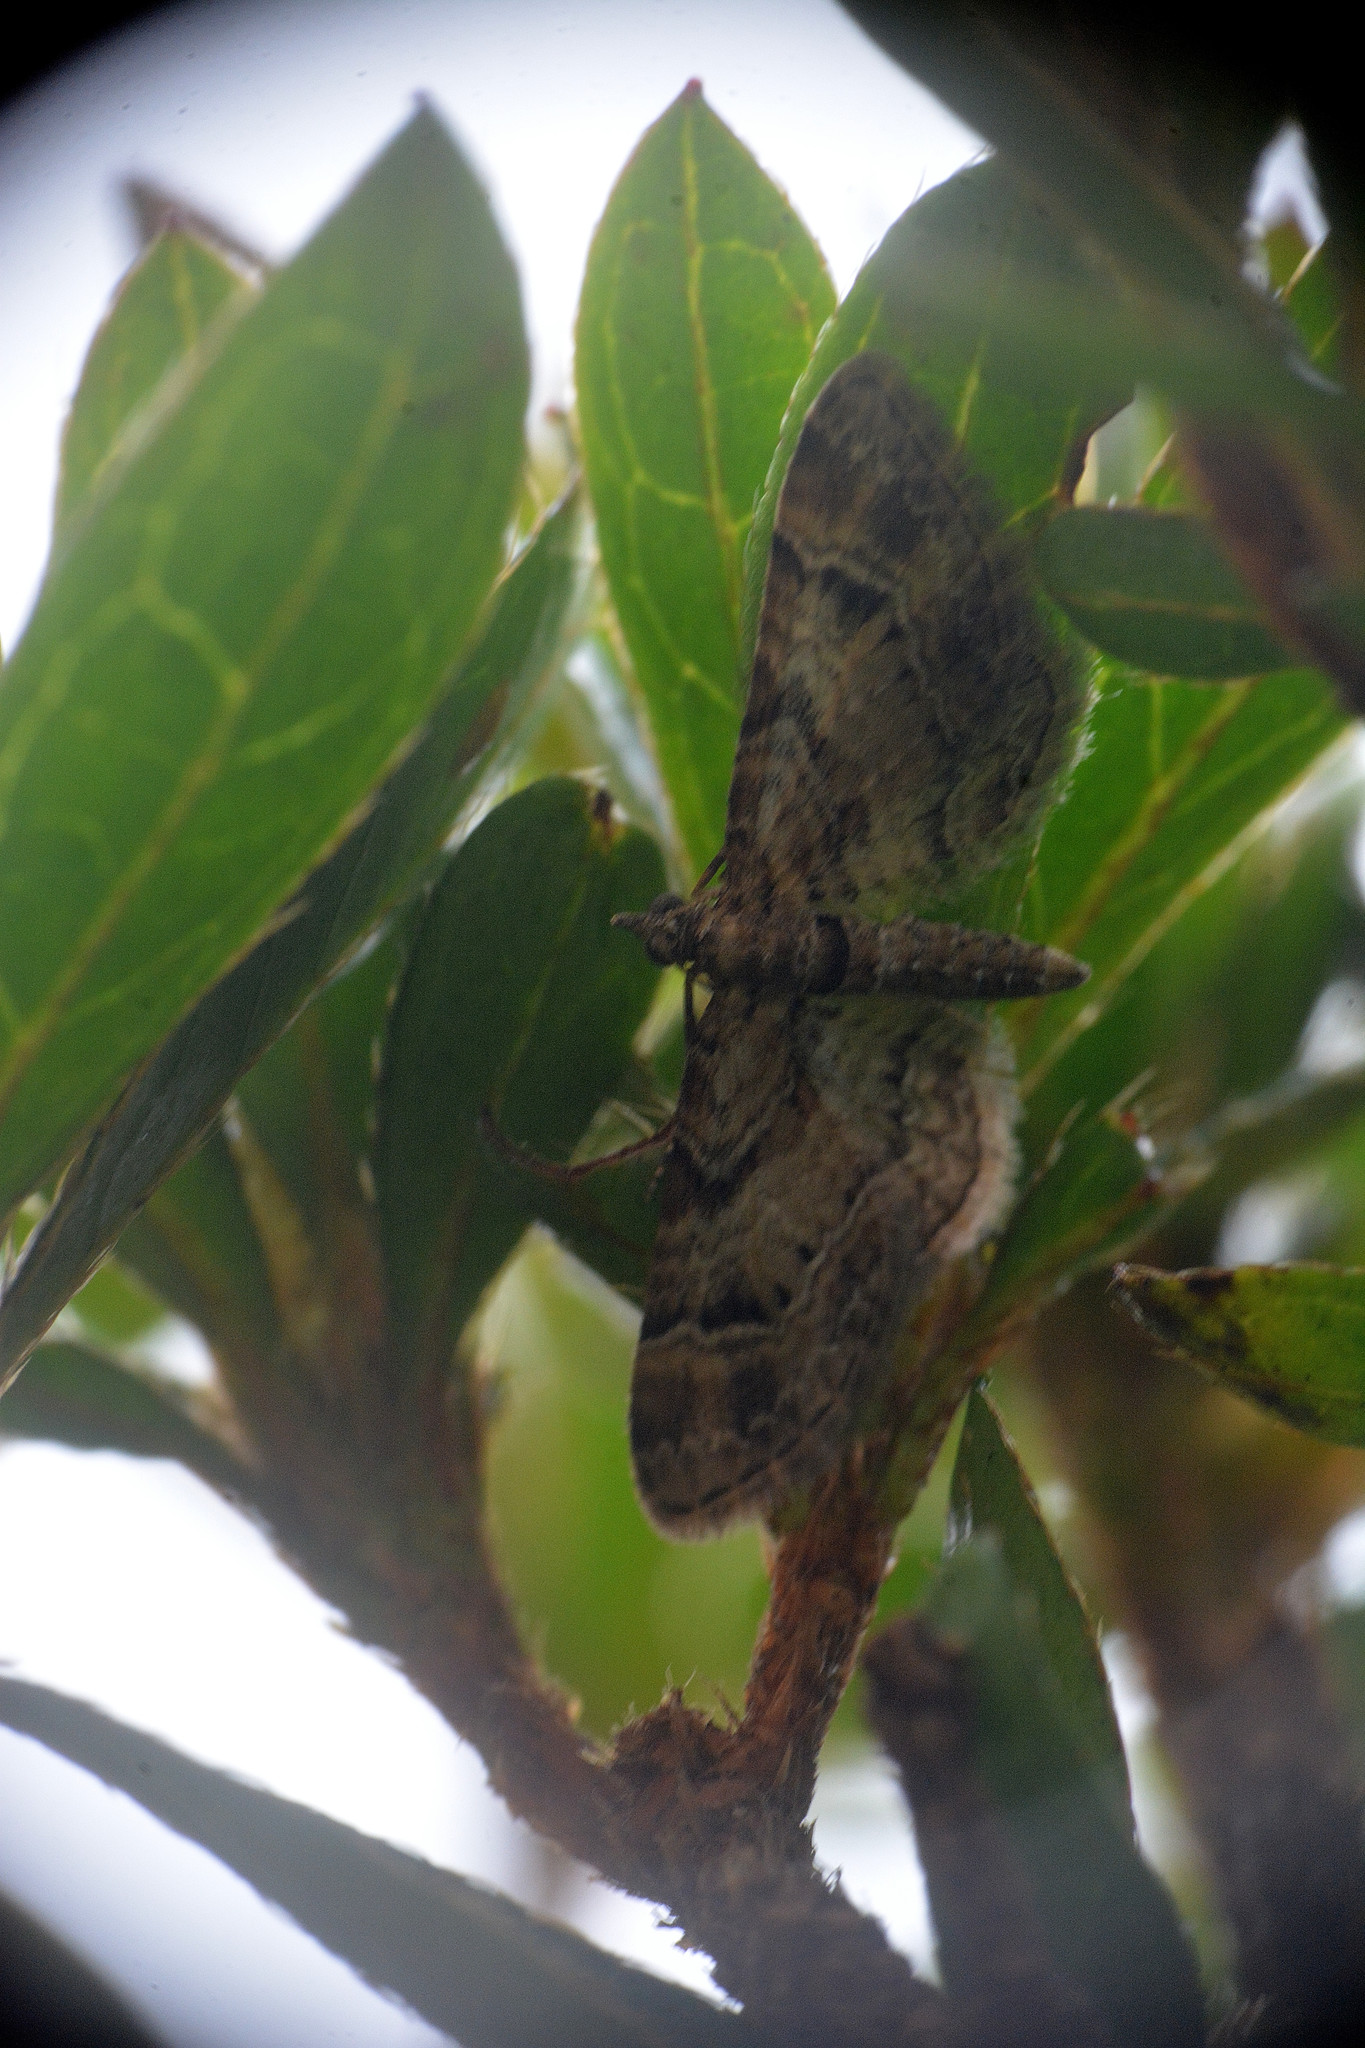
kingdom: Animalia
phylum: Arthropoda
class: Insecta
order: Lepidoptera
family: Geometridae
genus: Gymnoscelis
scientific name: Gymnoscelis rufifasciata
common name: Double-striped pug
